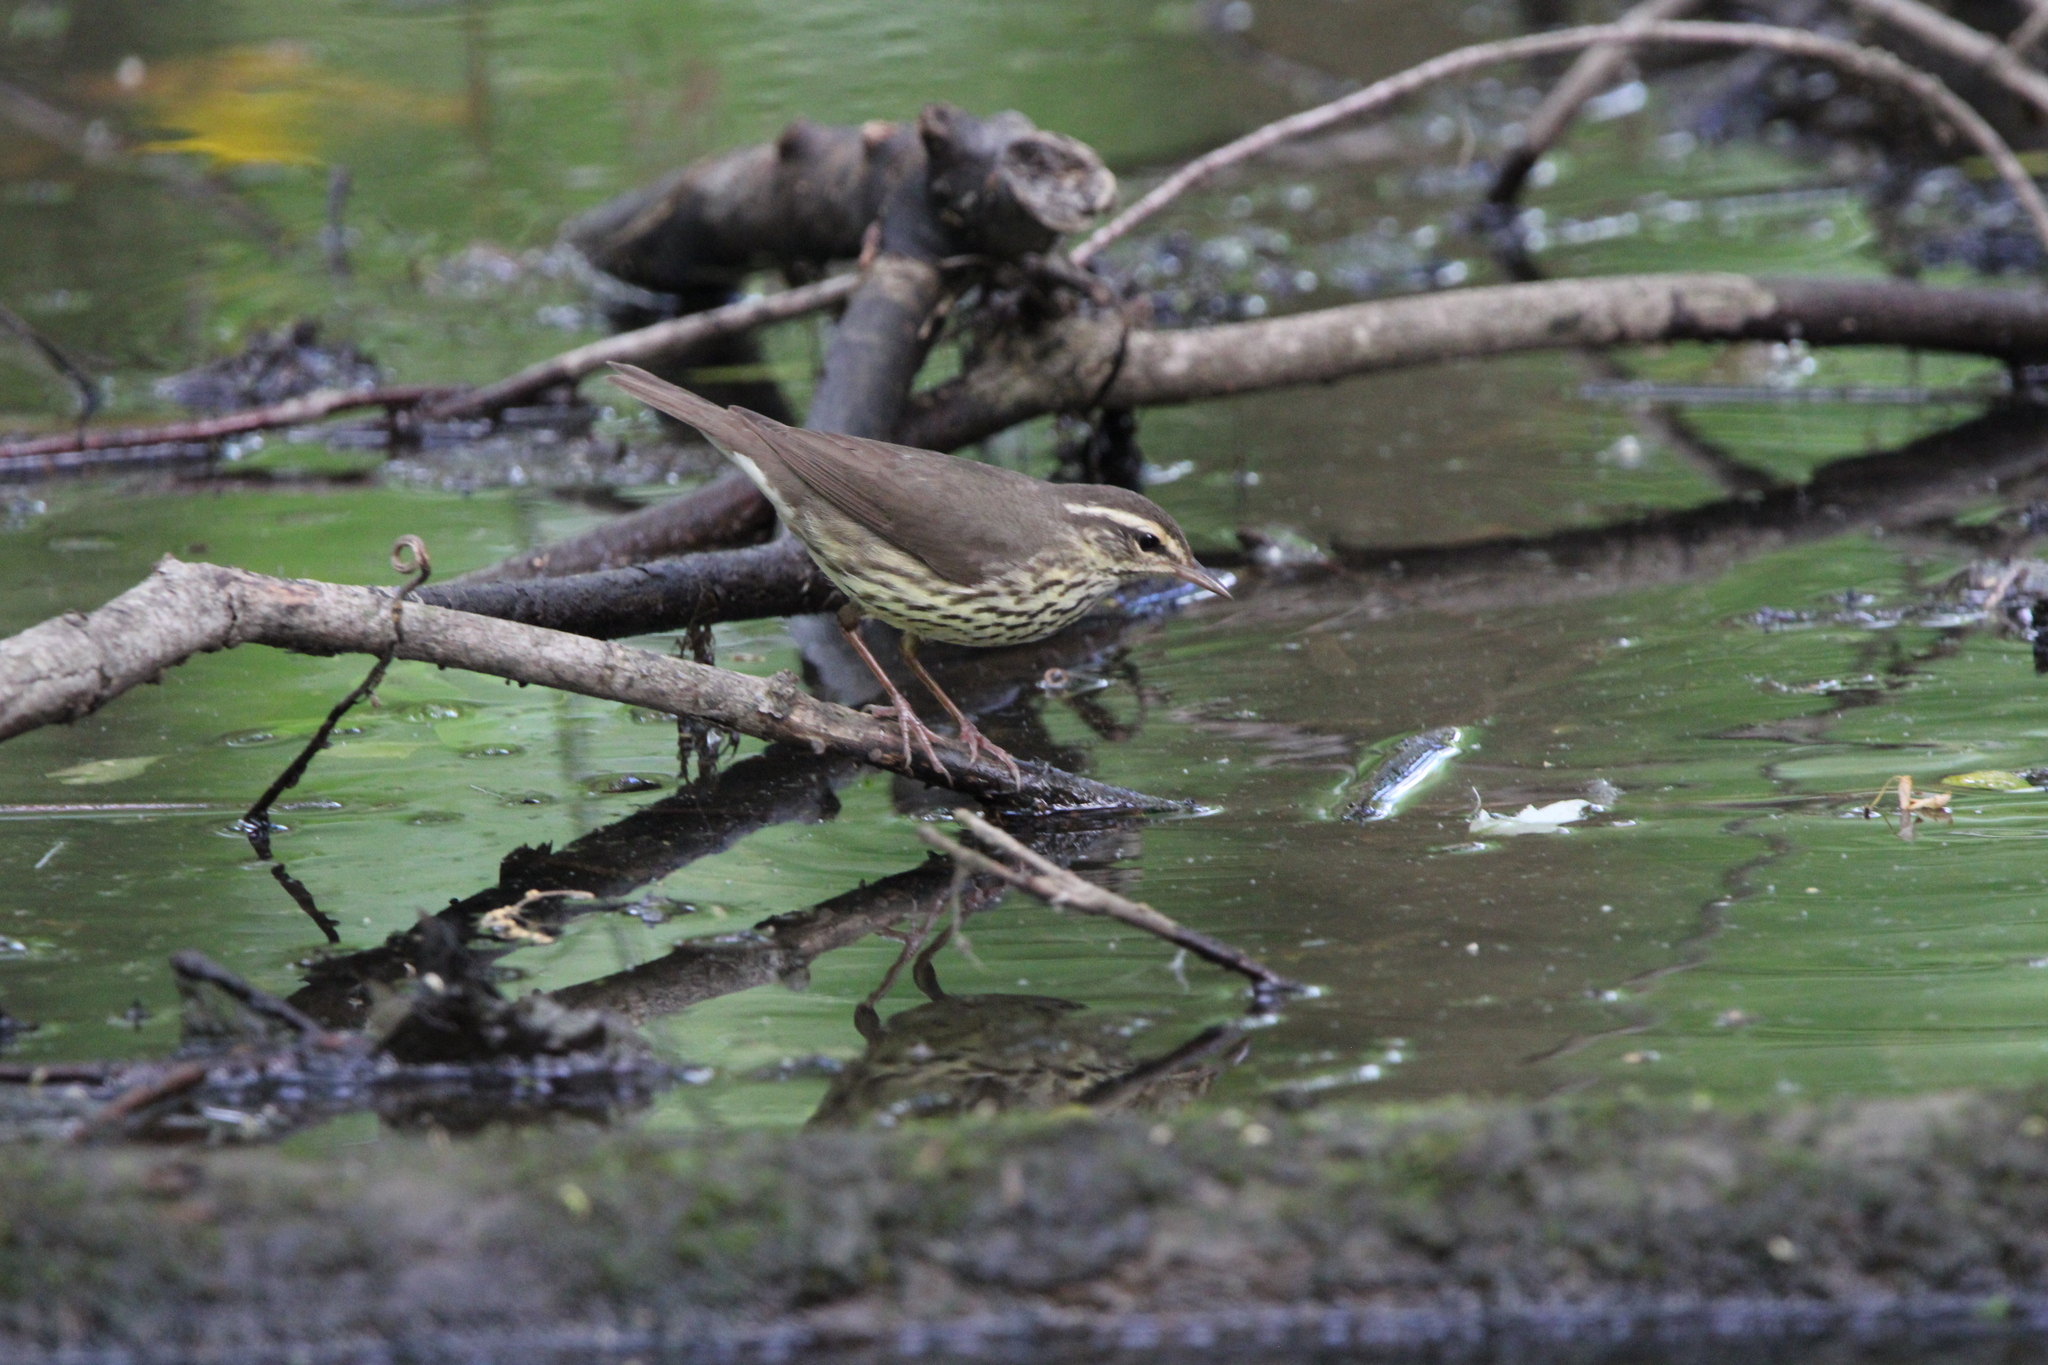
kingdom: Animalia
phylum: Chordata
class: Aves
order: Passeriformes
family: Parulidae
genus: Parkesia
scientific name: Parkesia noveboracensis
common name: Northern waterthrush
